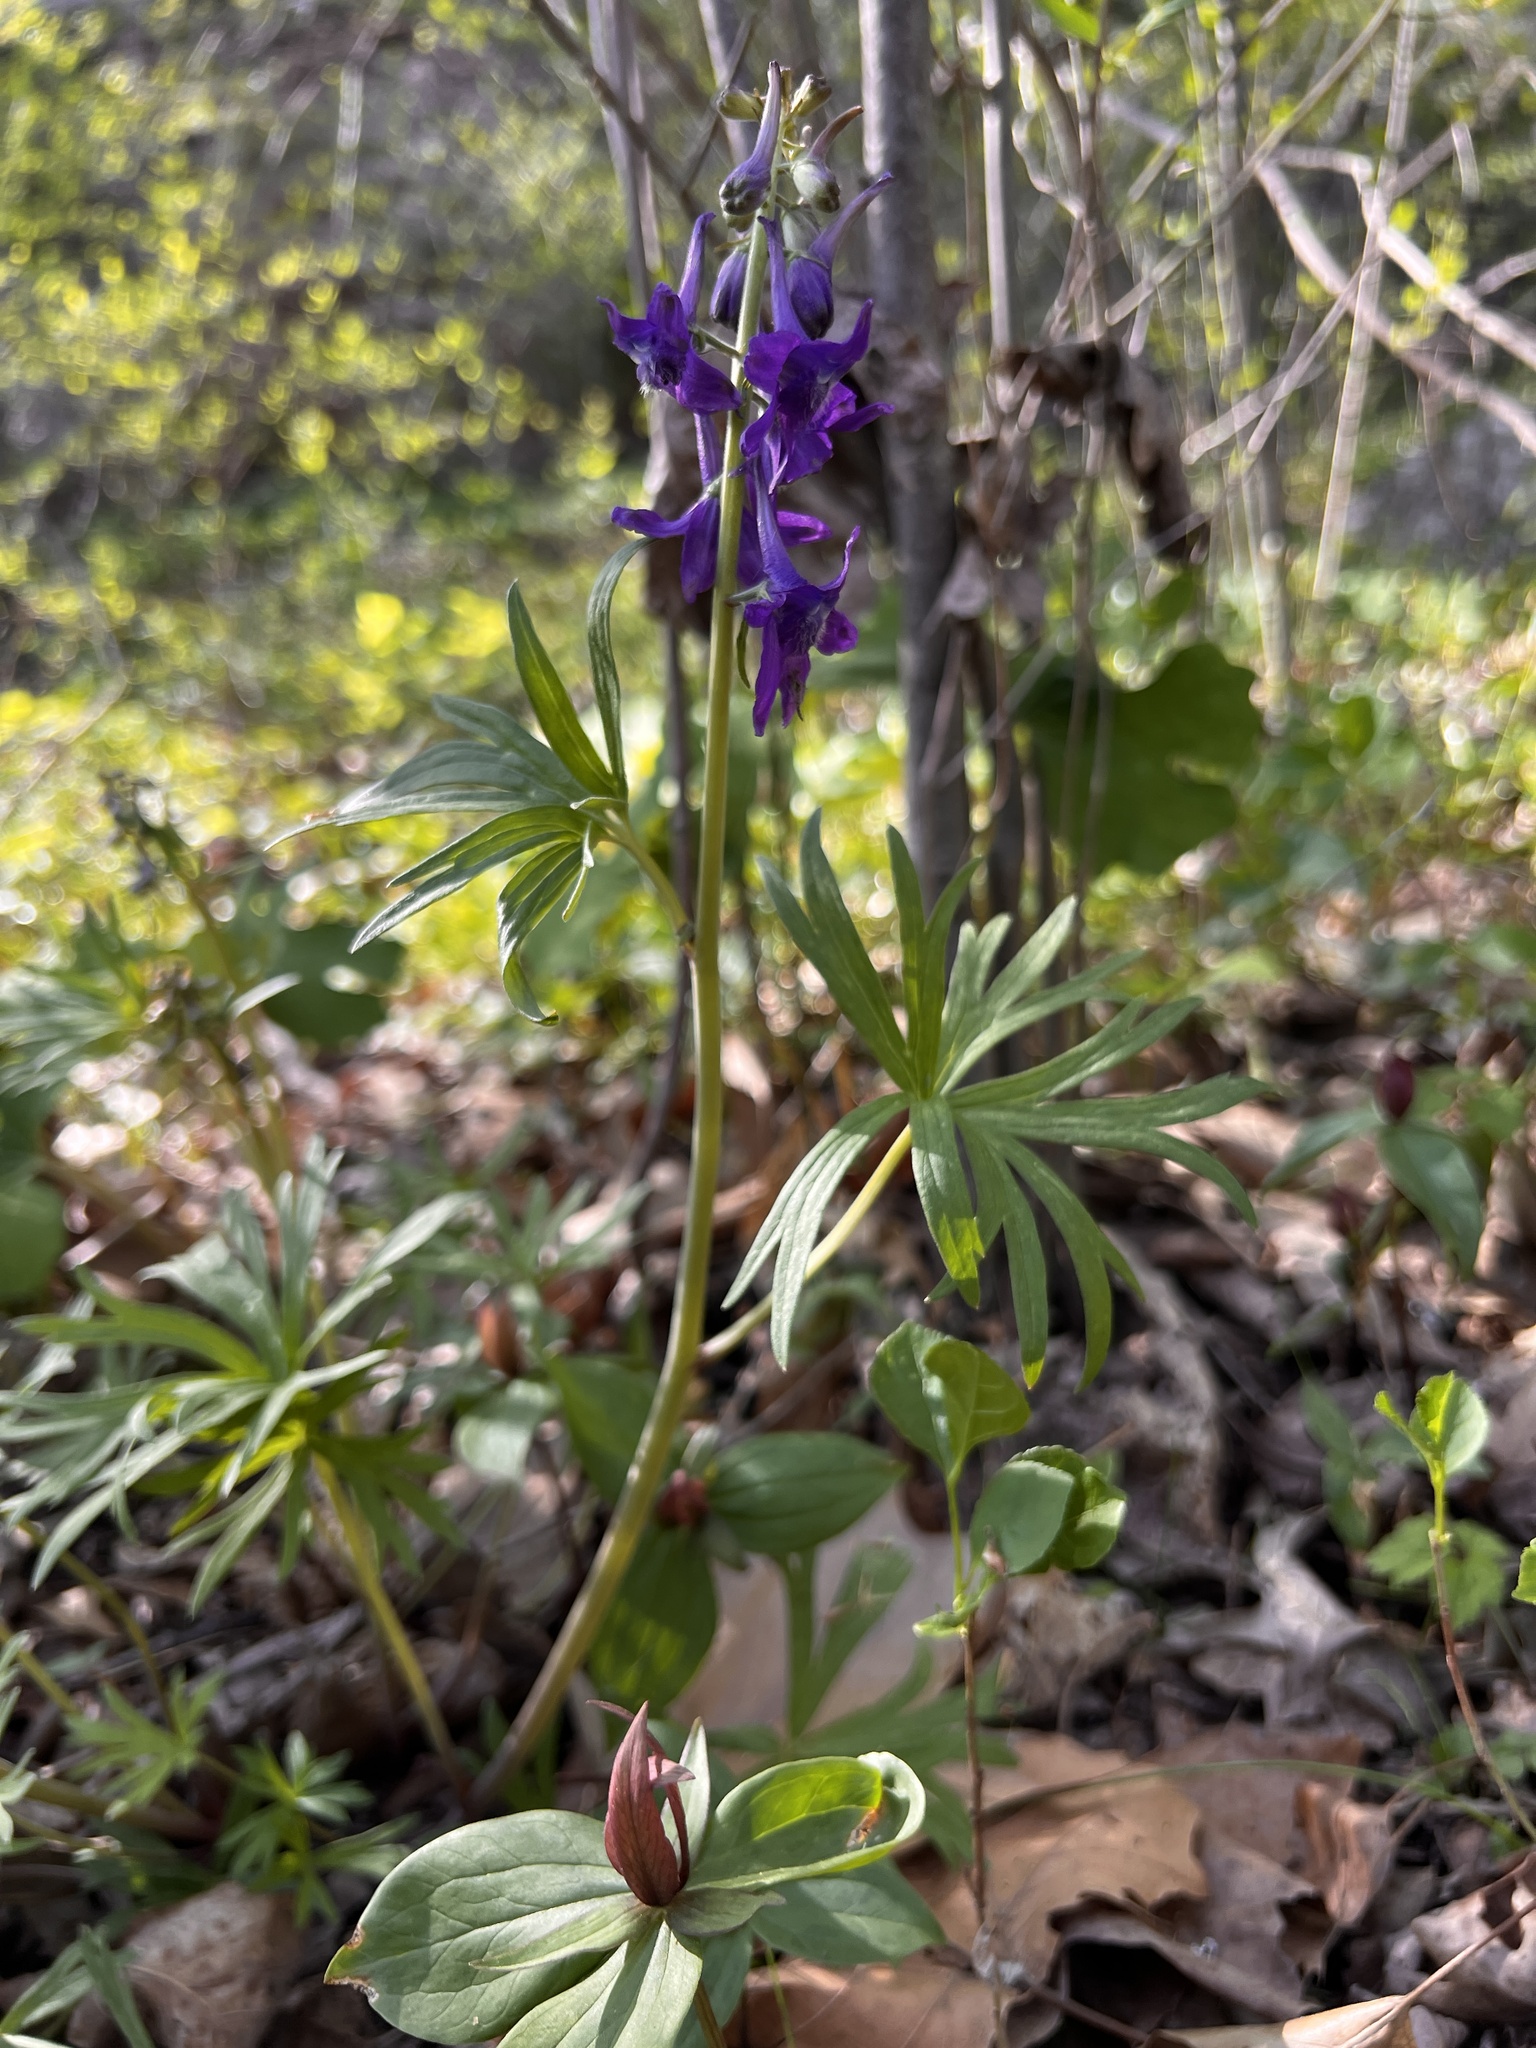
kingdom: Plantae
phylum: Tracheophyta
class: Magnoliopsida
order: Ranunculales
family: Ranunculaceae
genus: Delphinium
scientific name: Delphinium tricorne
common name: Dwarf larkspur
